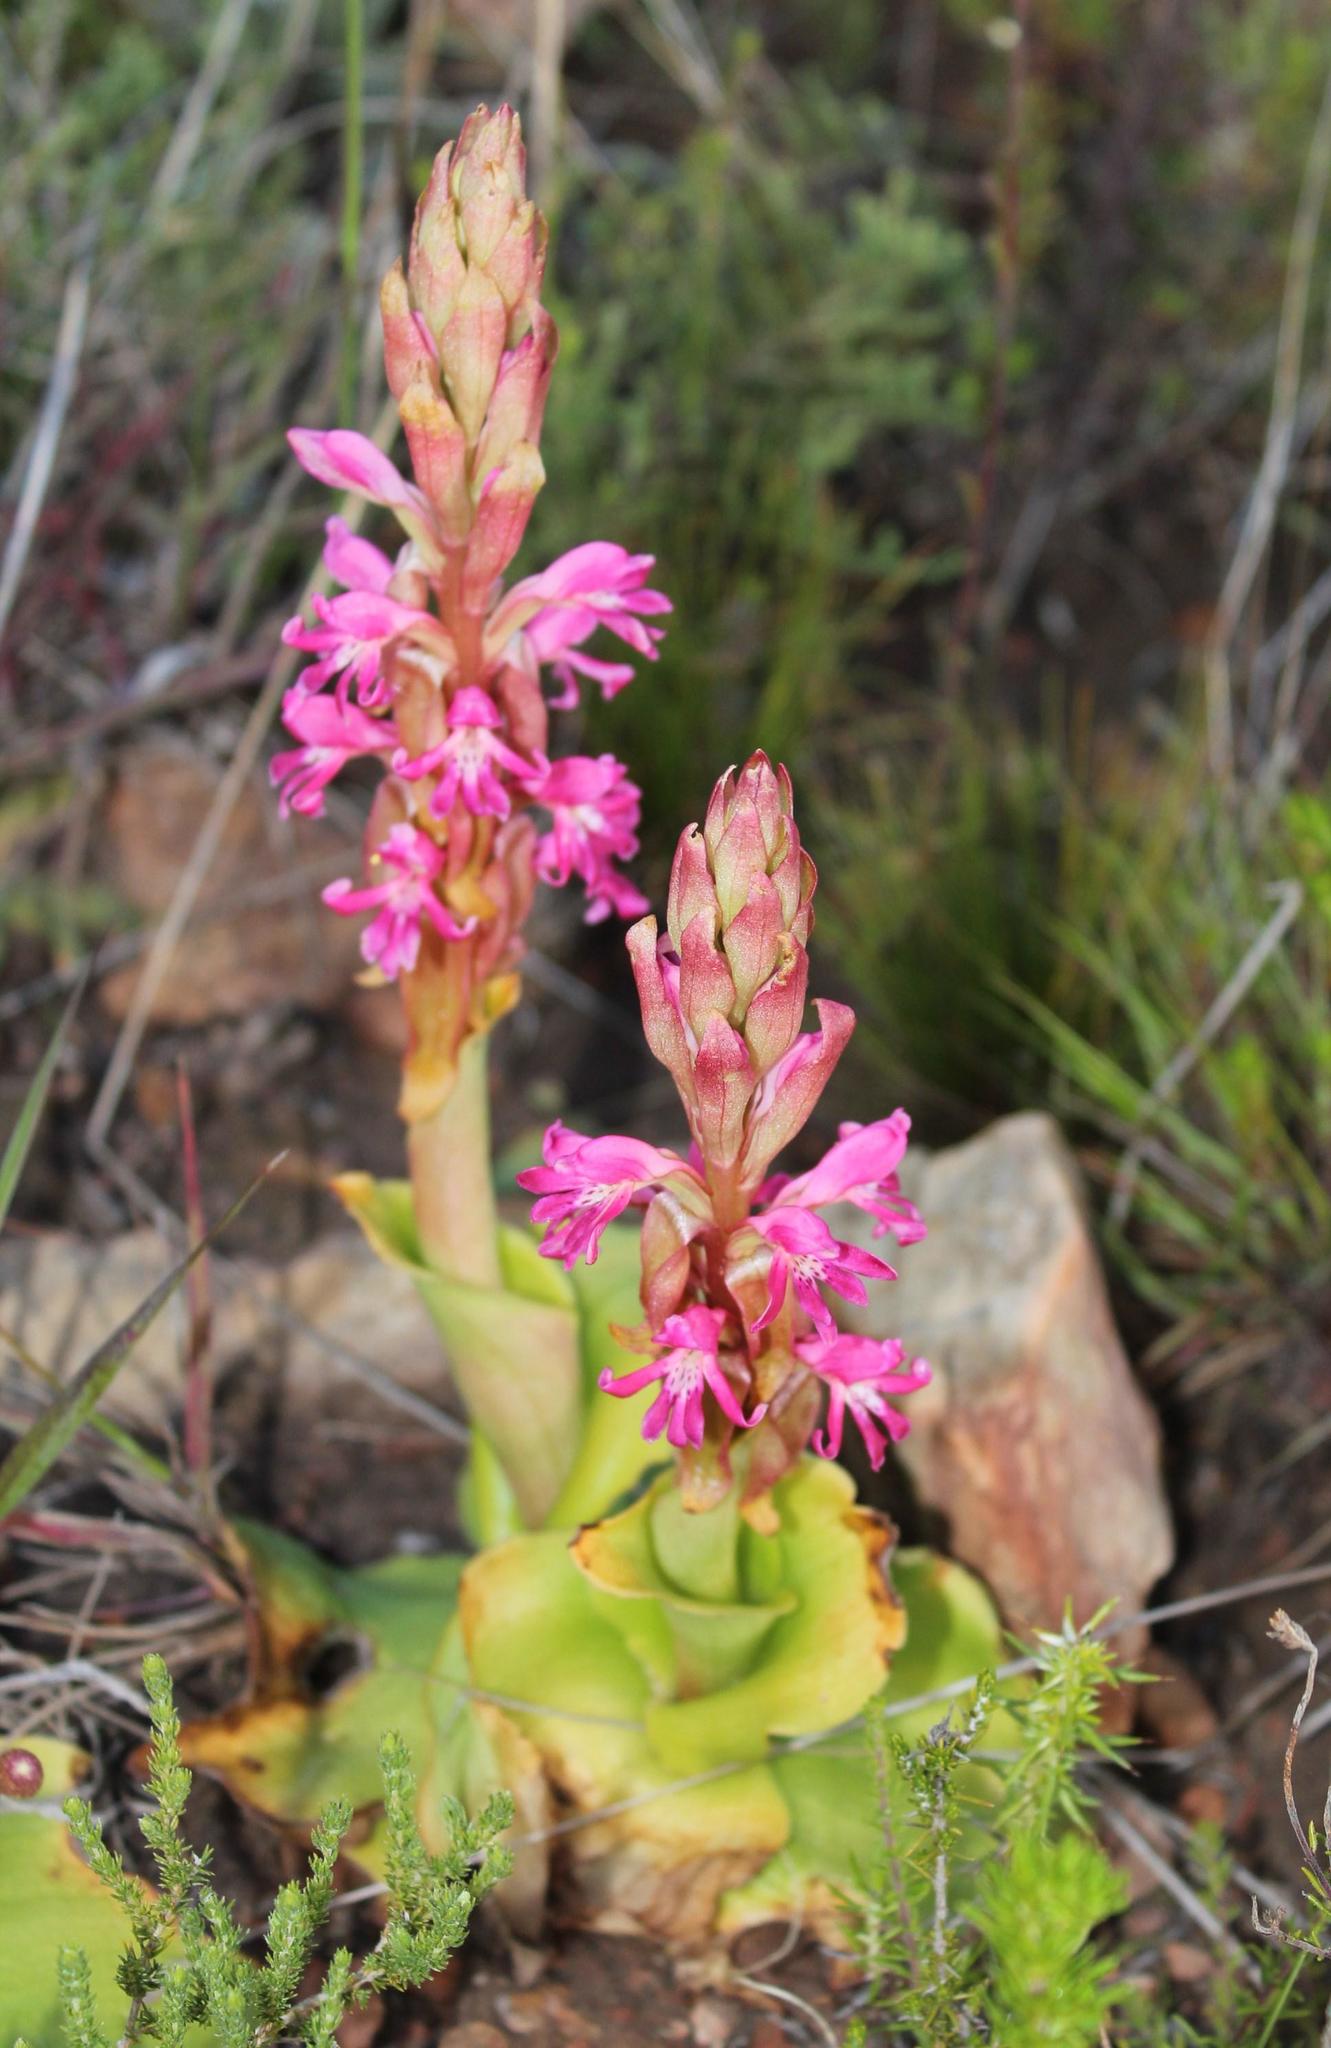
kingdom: Plantae
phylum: Tracheophyta
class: Liliopsida
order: Asparagales
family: Orchidaceae
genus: Satyrium
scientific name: Satyrium erectum
